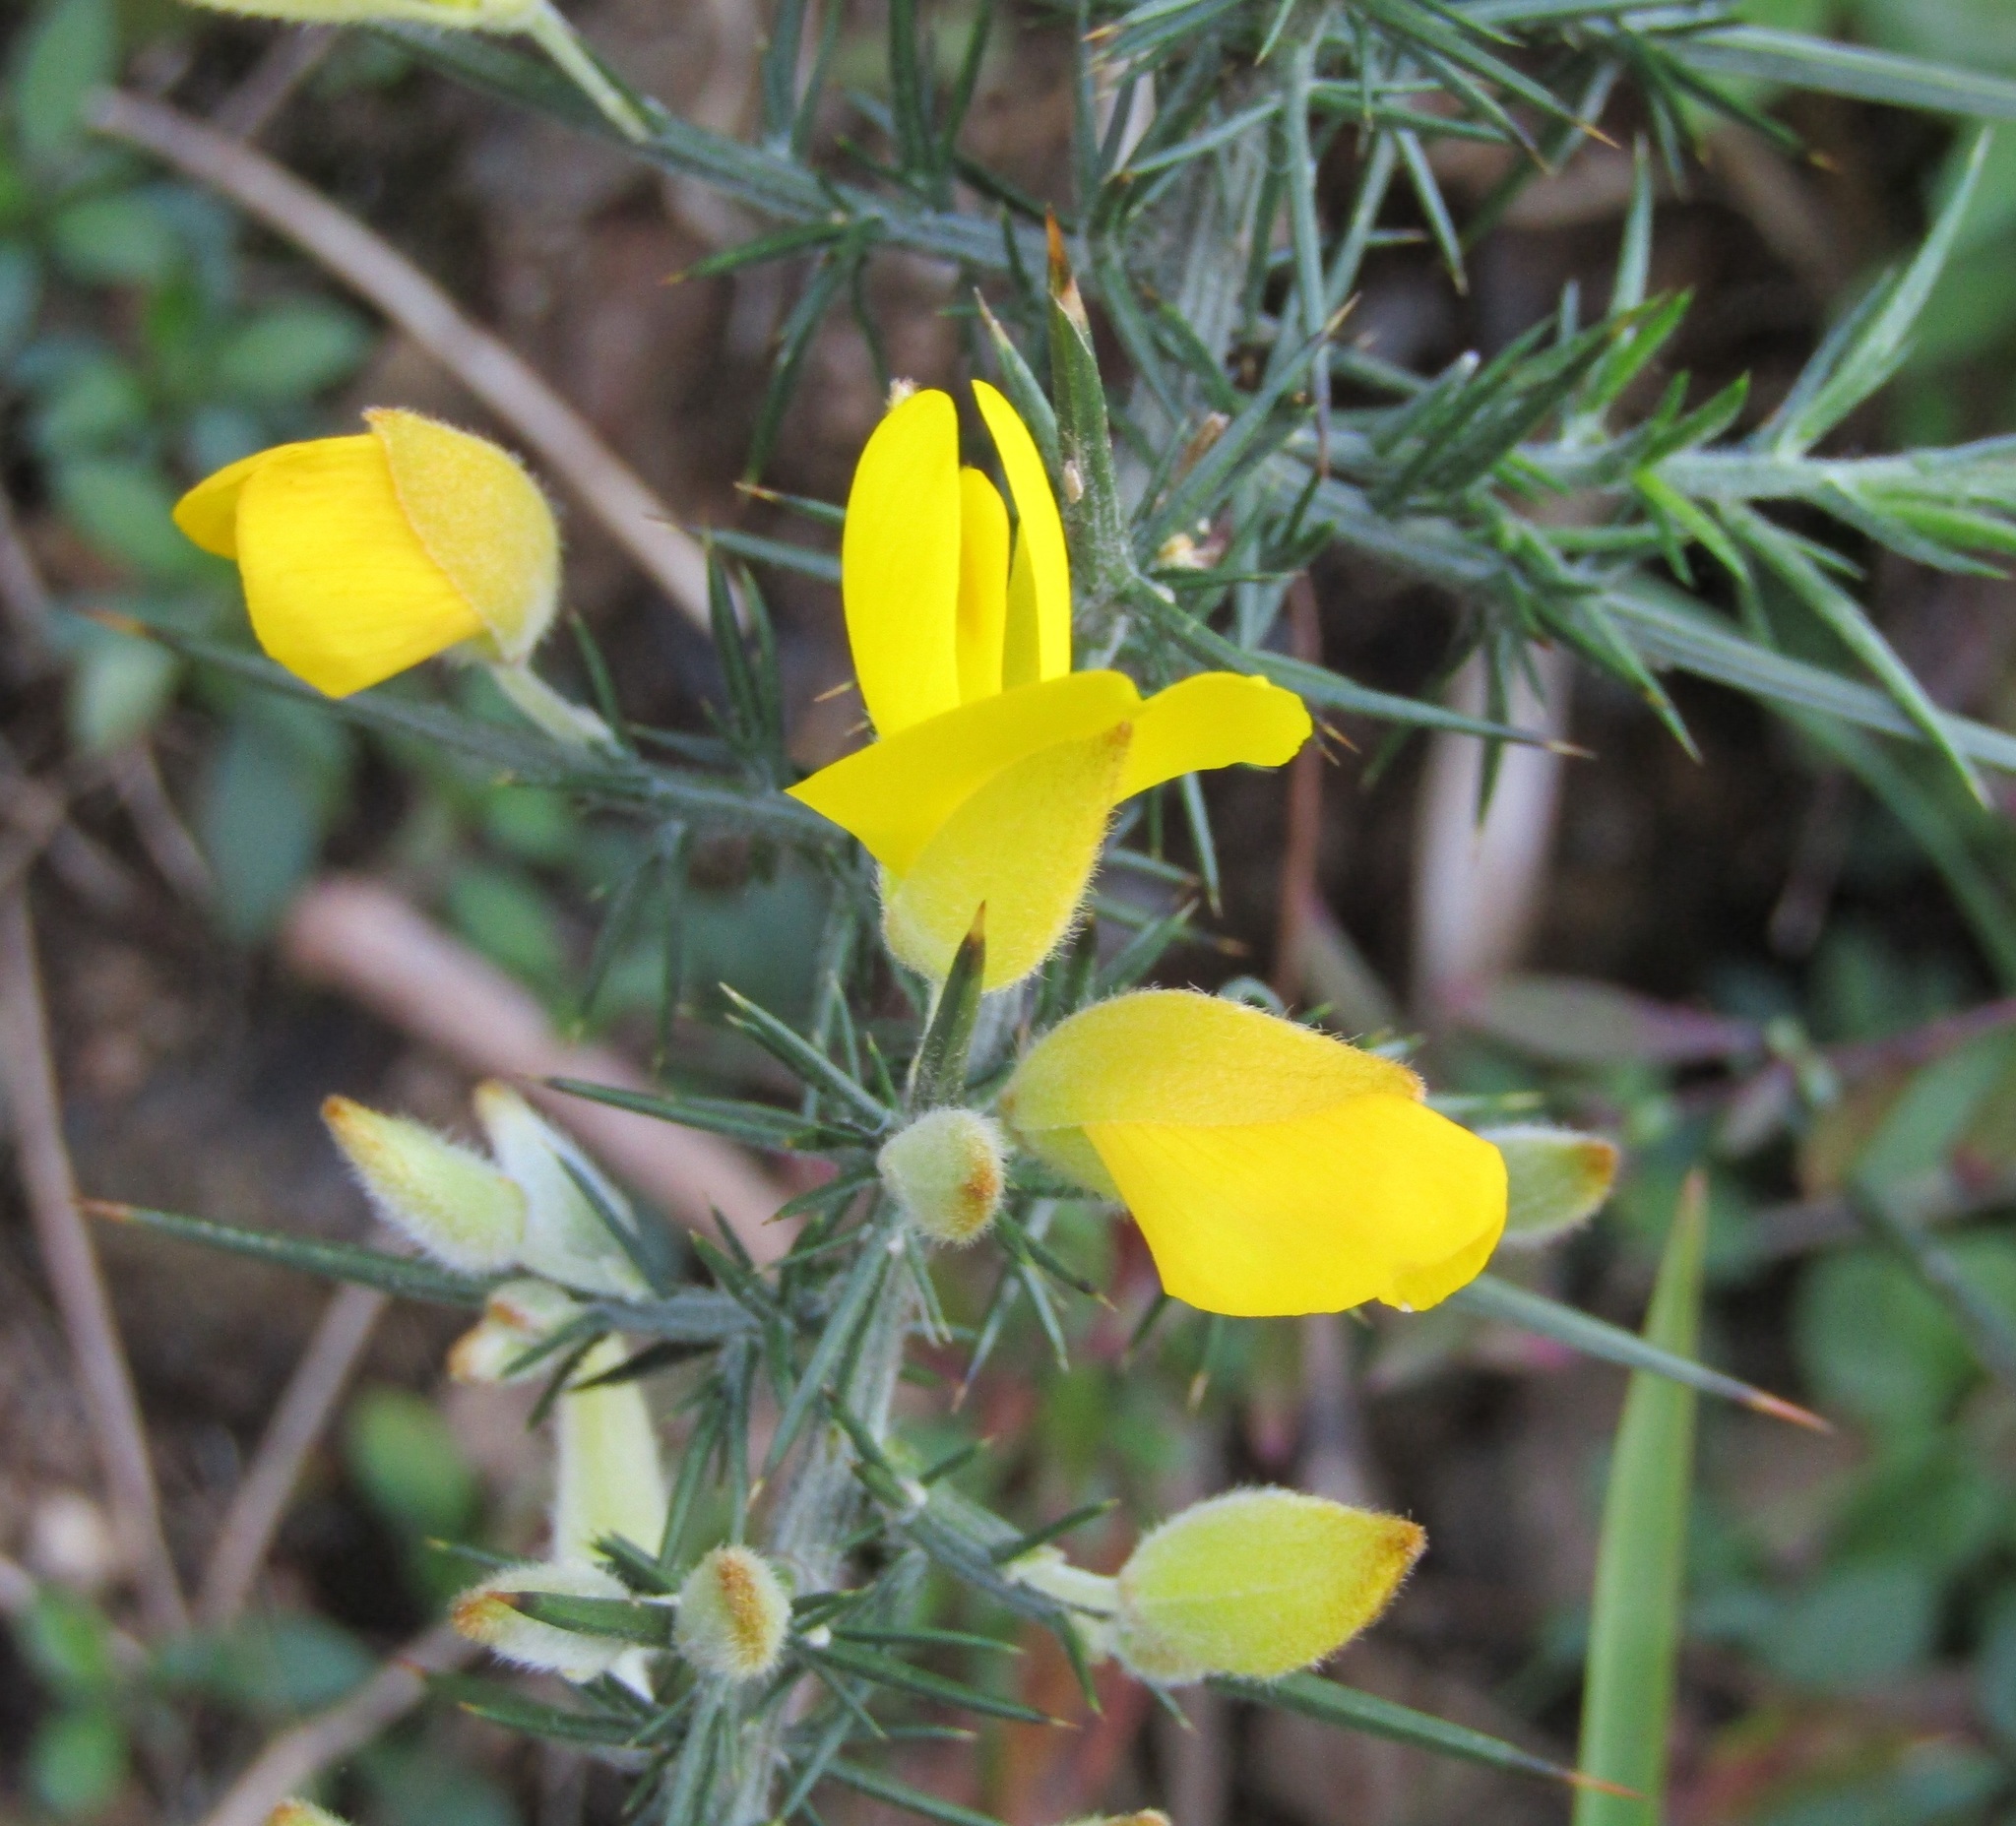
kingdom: Plantae
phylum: Tracheophyta
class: Magnoliopsida
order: Fabales
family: Fabaceae
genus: Ulex
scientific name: Ulex europaeus
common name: Common gorse
